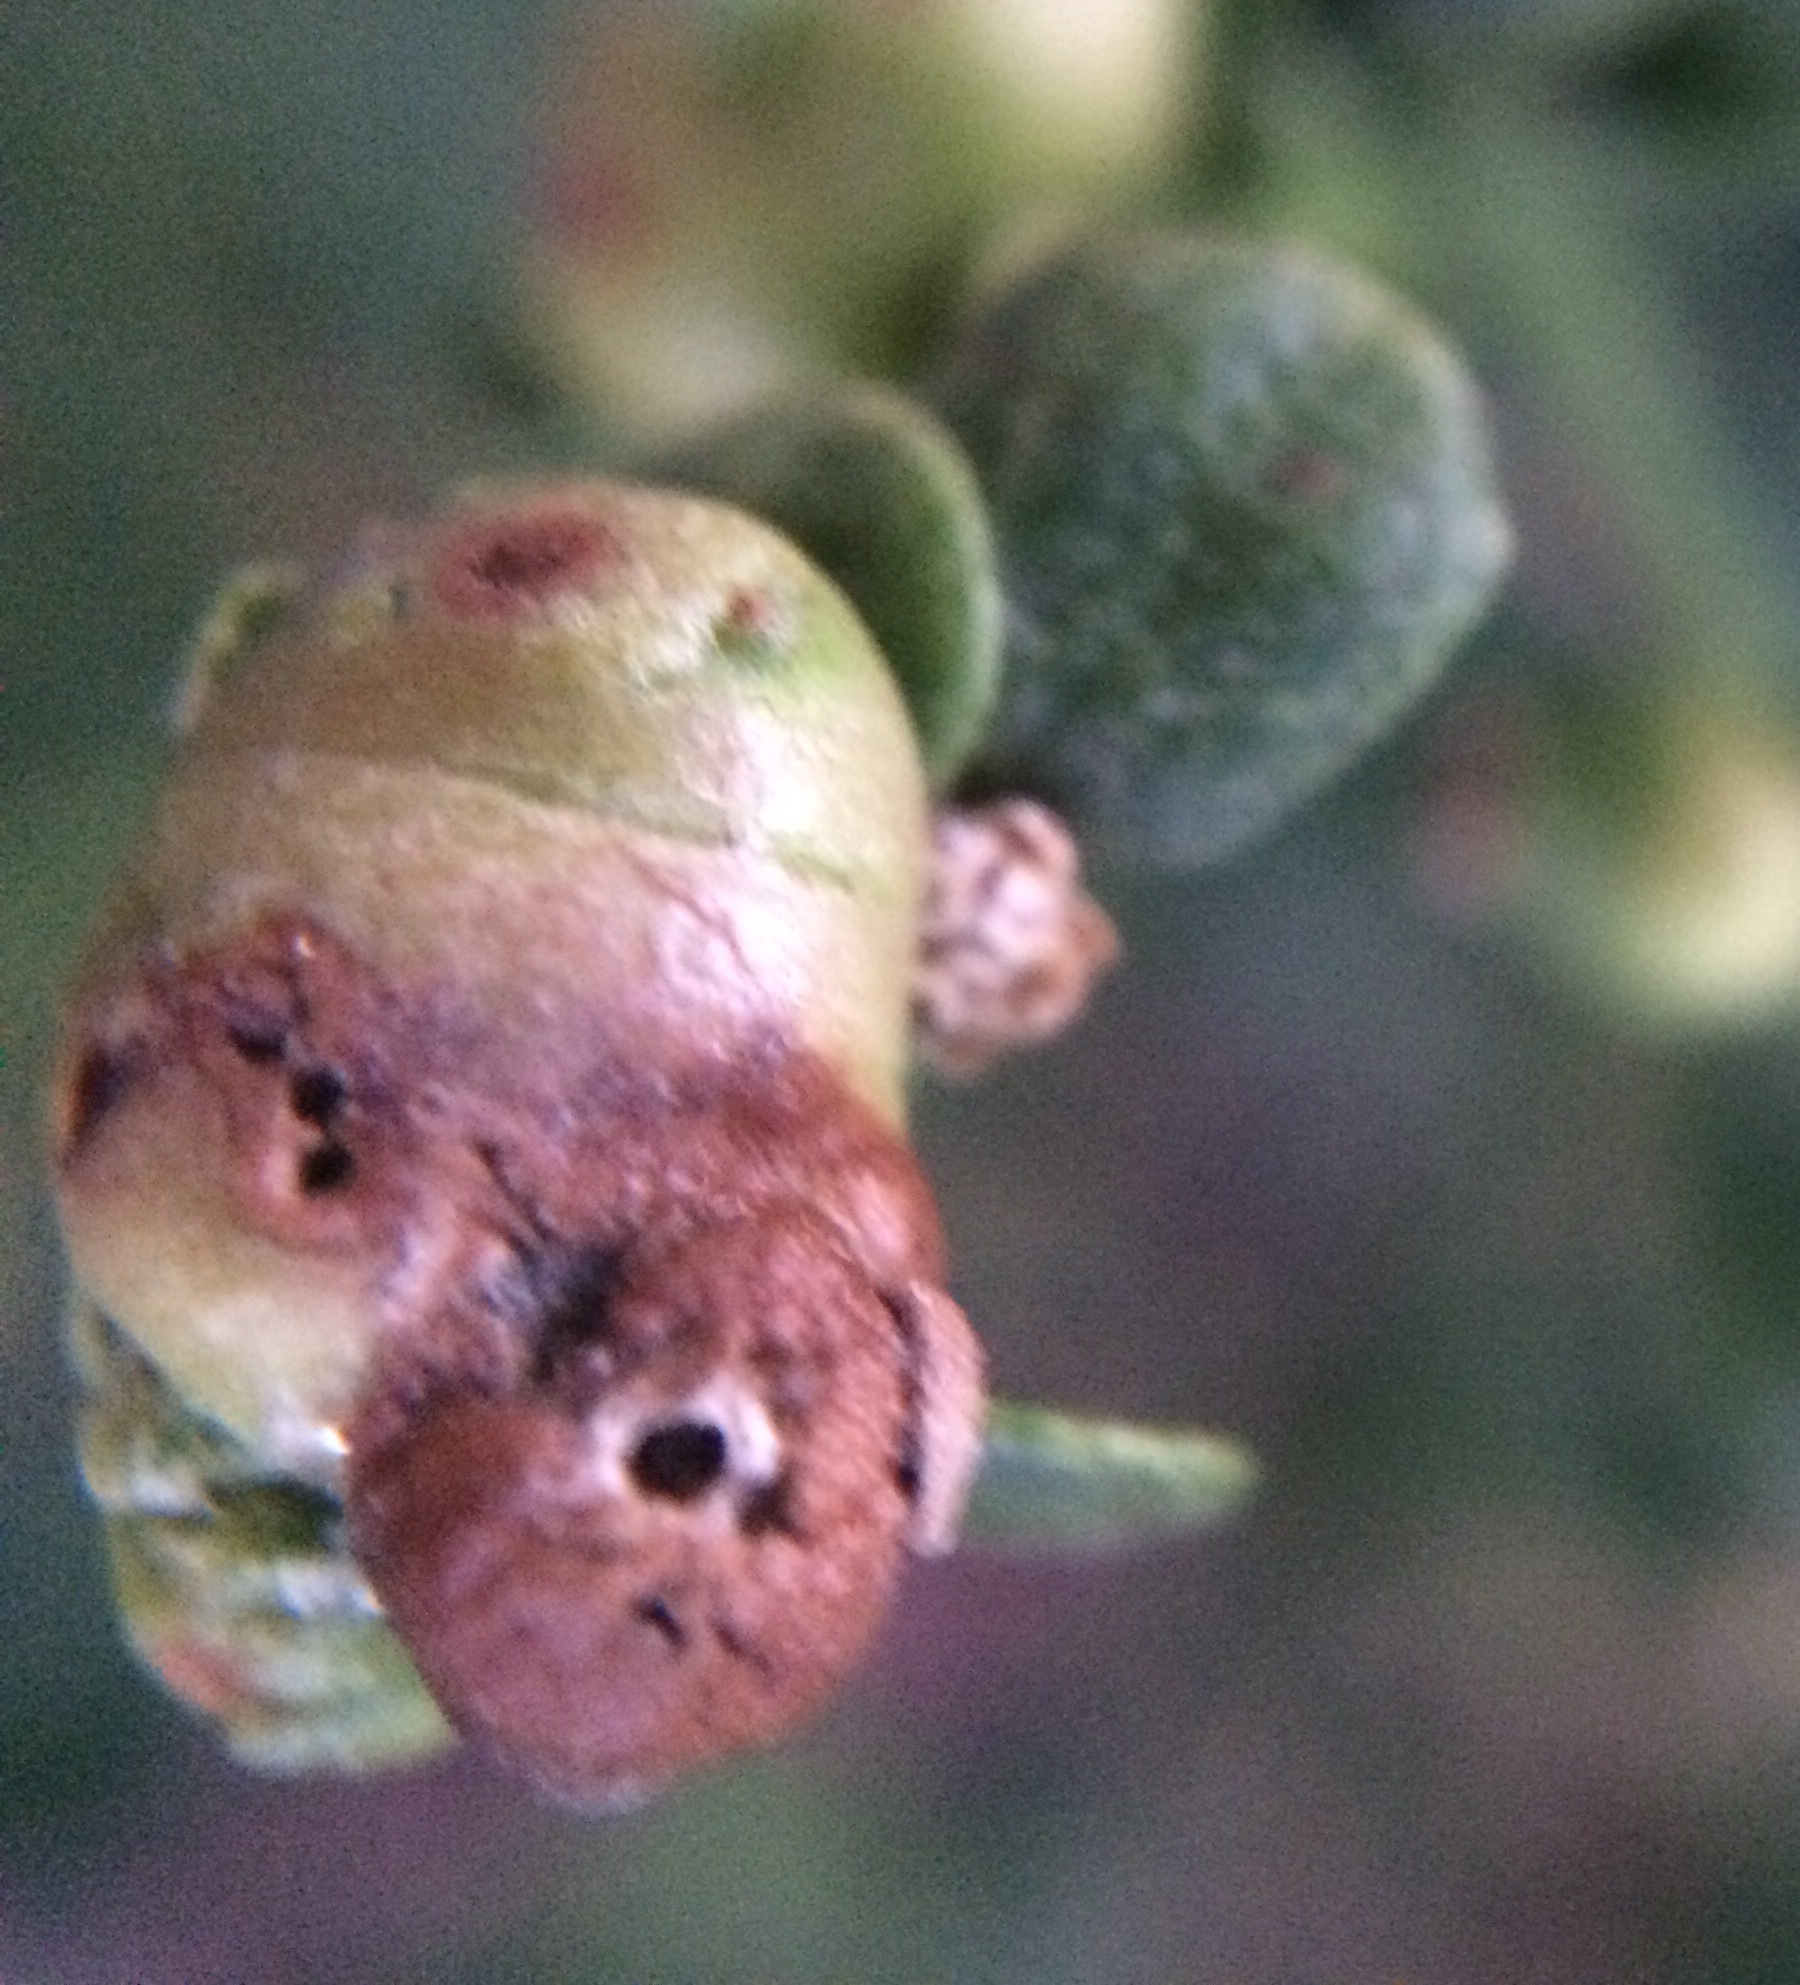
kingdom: Animalia
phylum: Arthropoda
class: Insecta
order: Diptera
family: Cecidomyiidae
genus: Rhopalomyia
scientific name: Rhopalomyia californica
